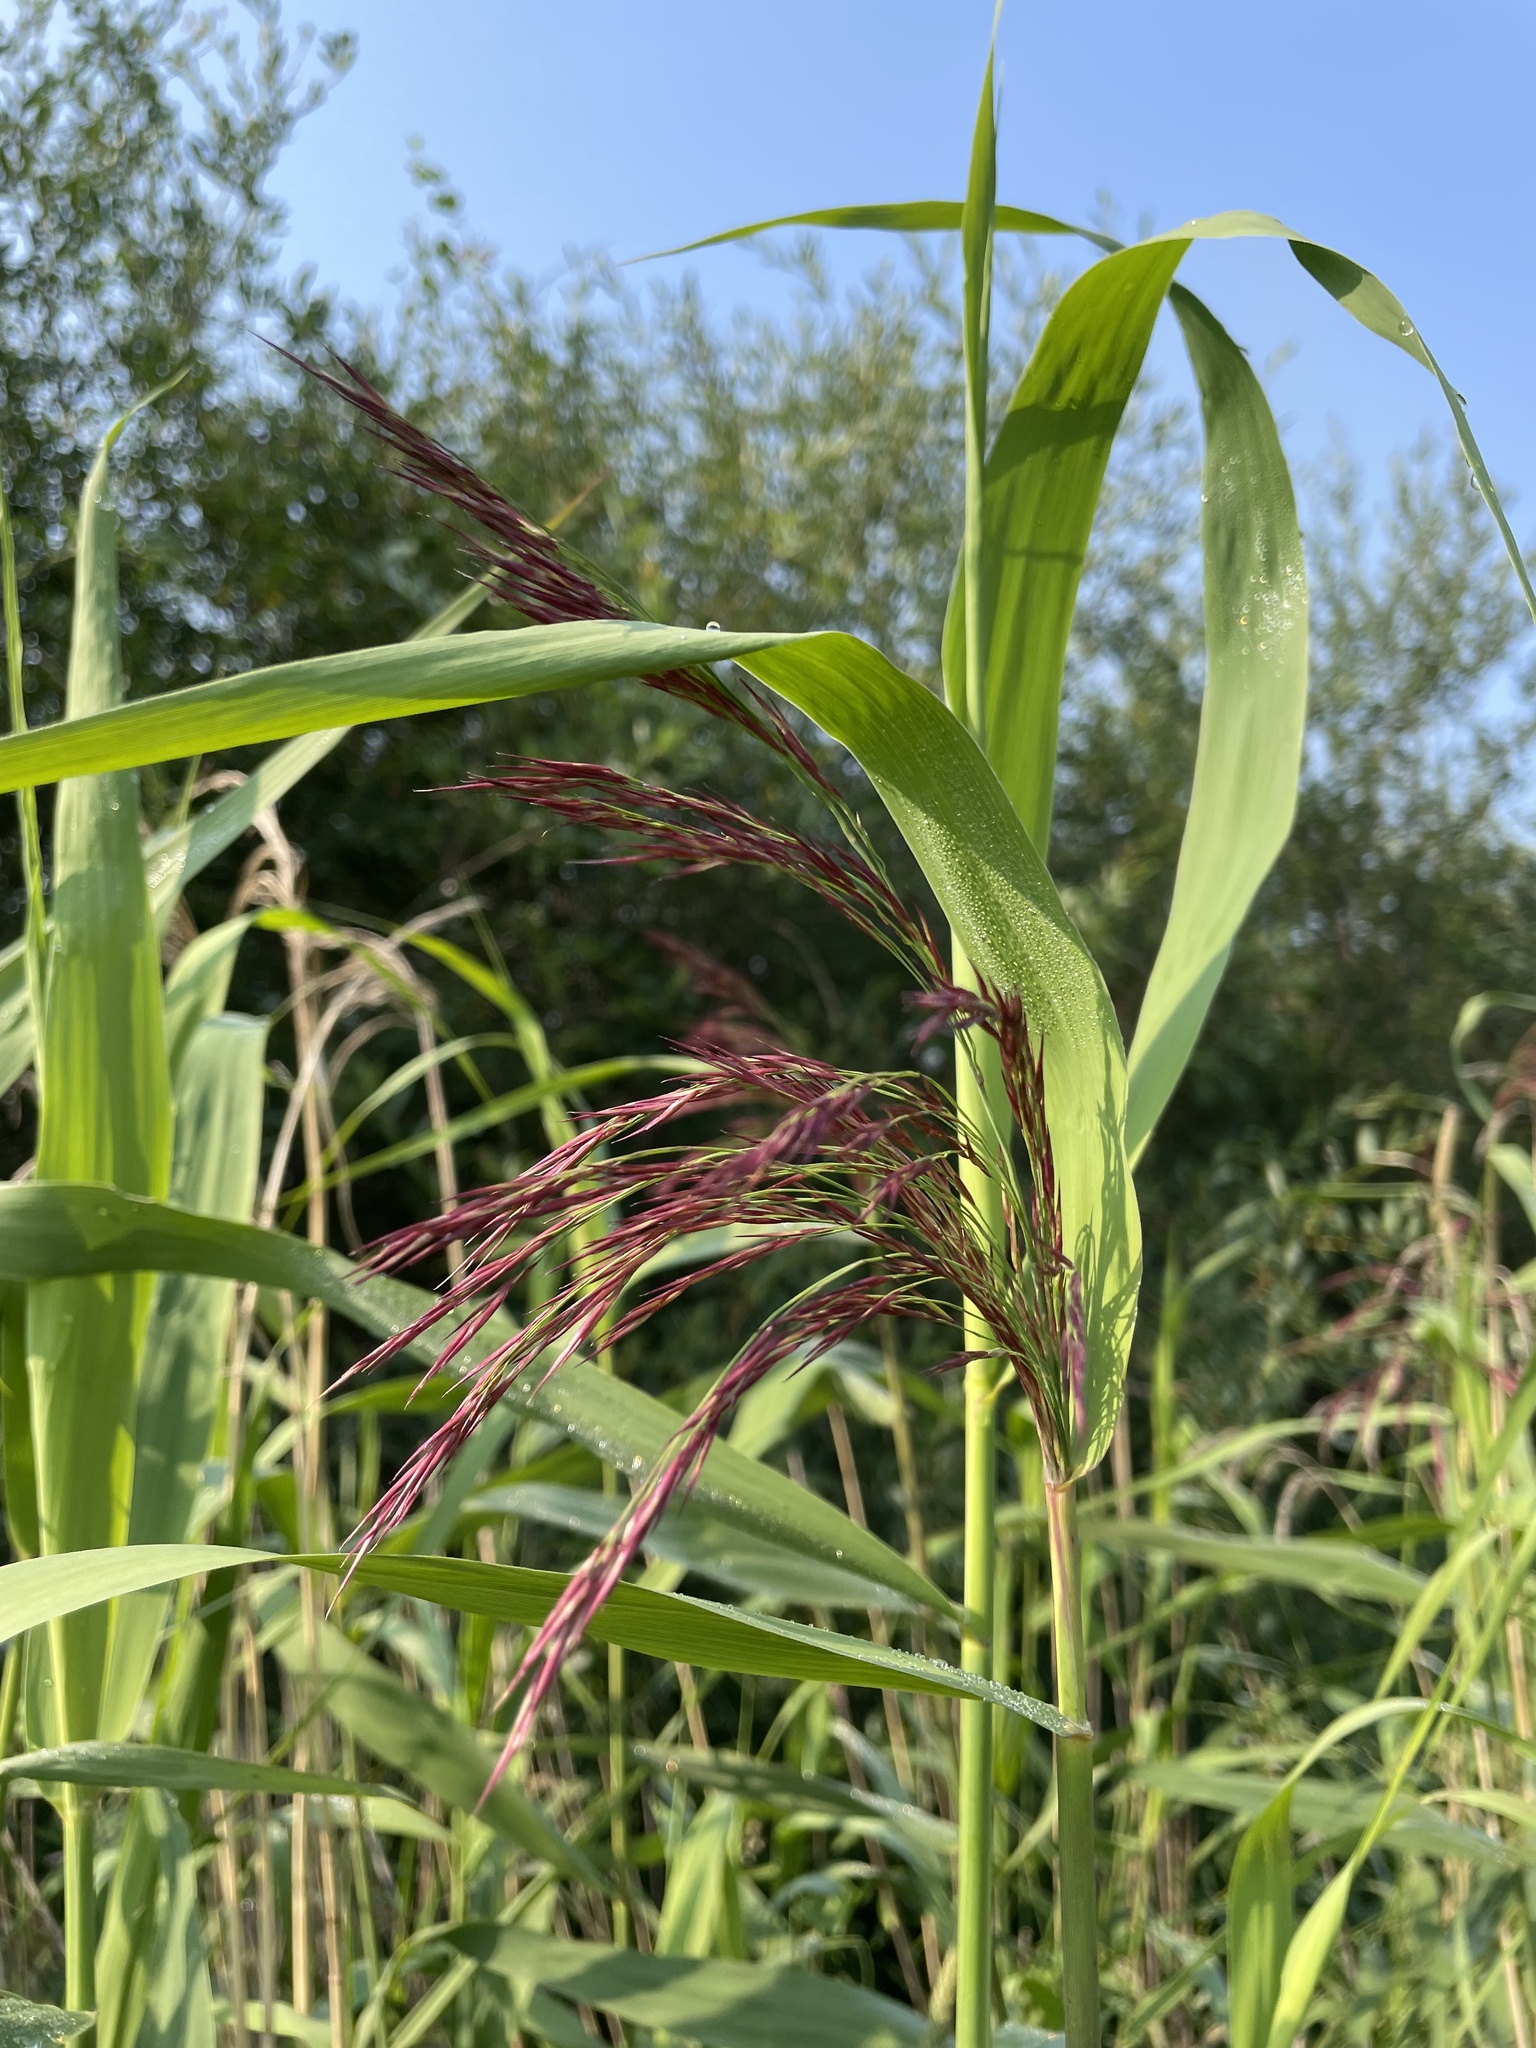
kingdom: Plantae
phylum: Tracheophyta
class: Liliopsida
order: Poales
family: Poaceae
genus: Phragmites
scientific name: Phragmites australis
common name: Common reed
